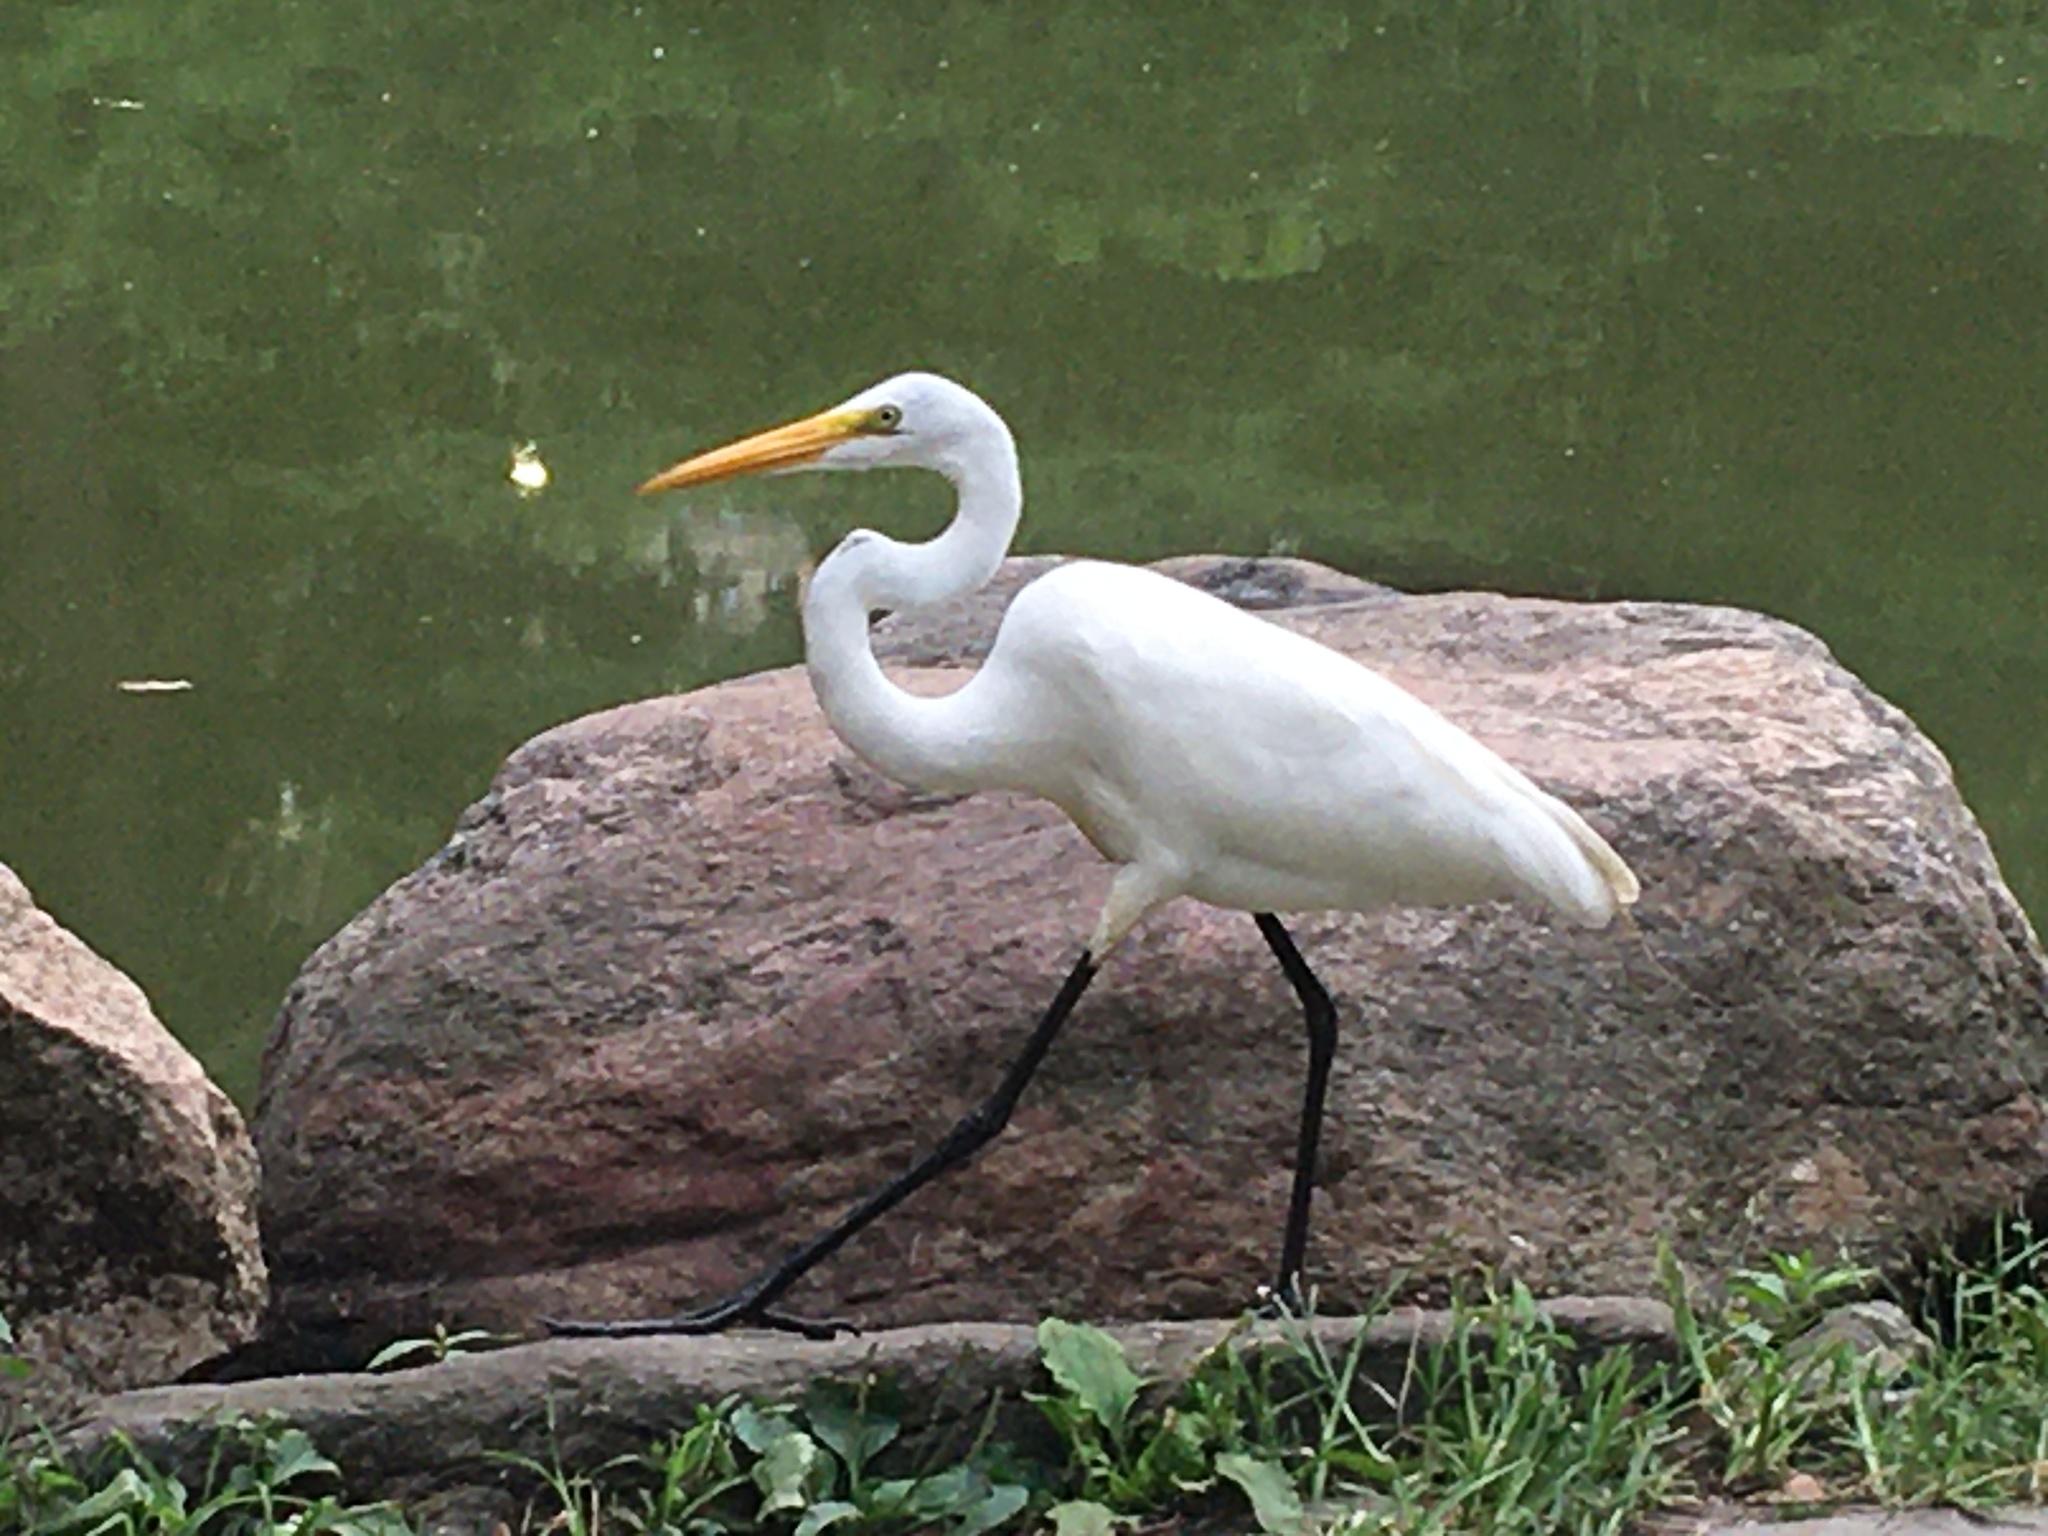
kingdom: Animalia
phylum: Chordata
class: Aves
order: Pelecaniformes
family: Ardeidae
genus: Ardea
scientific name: Ardea alba
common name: Great egret
